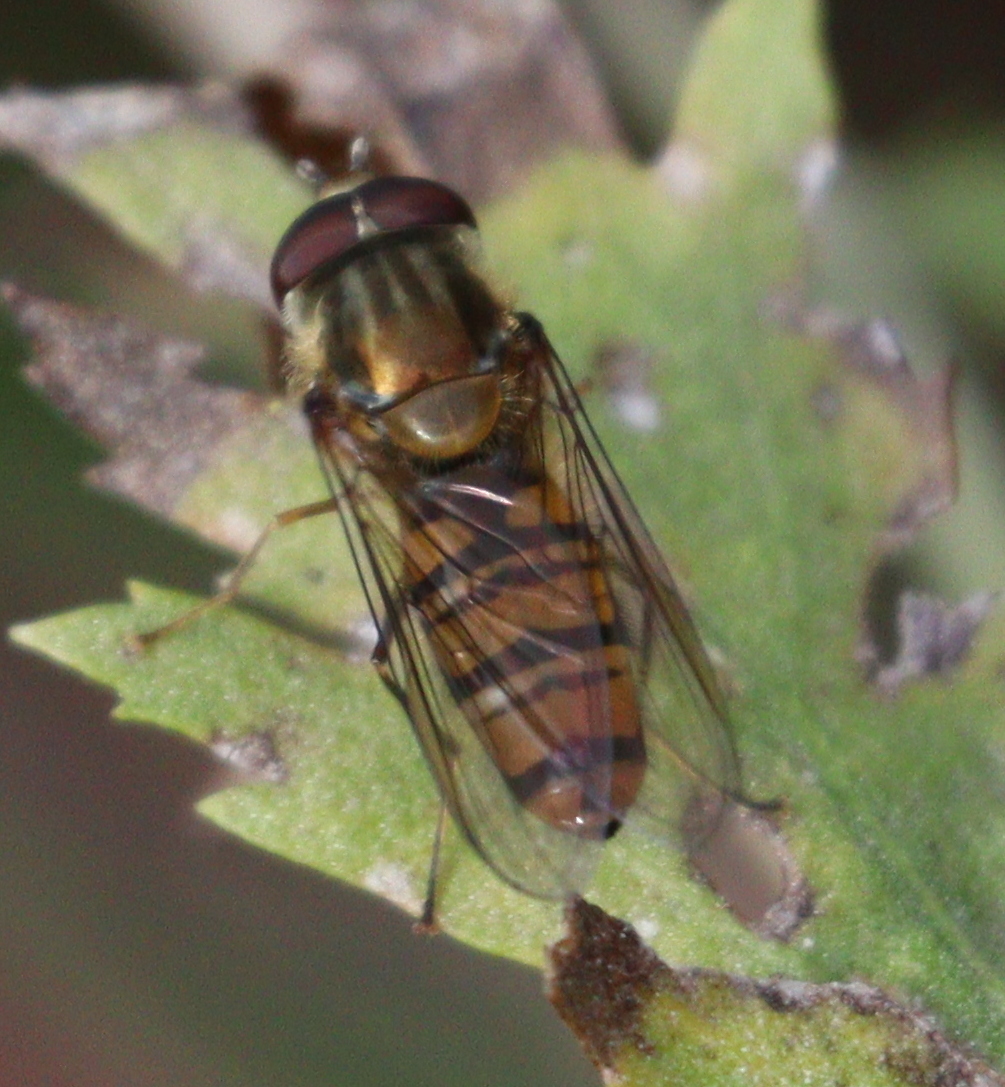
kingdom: Animalia
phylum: Arthropoda
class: Insecta
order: Diptera
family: Syrphidae
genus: Episyrphus
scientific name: Episyrphus balteatus
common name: Marmalade hoverfly
